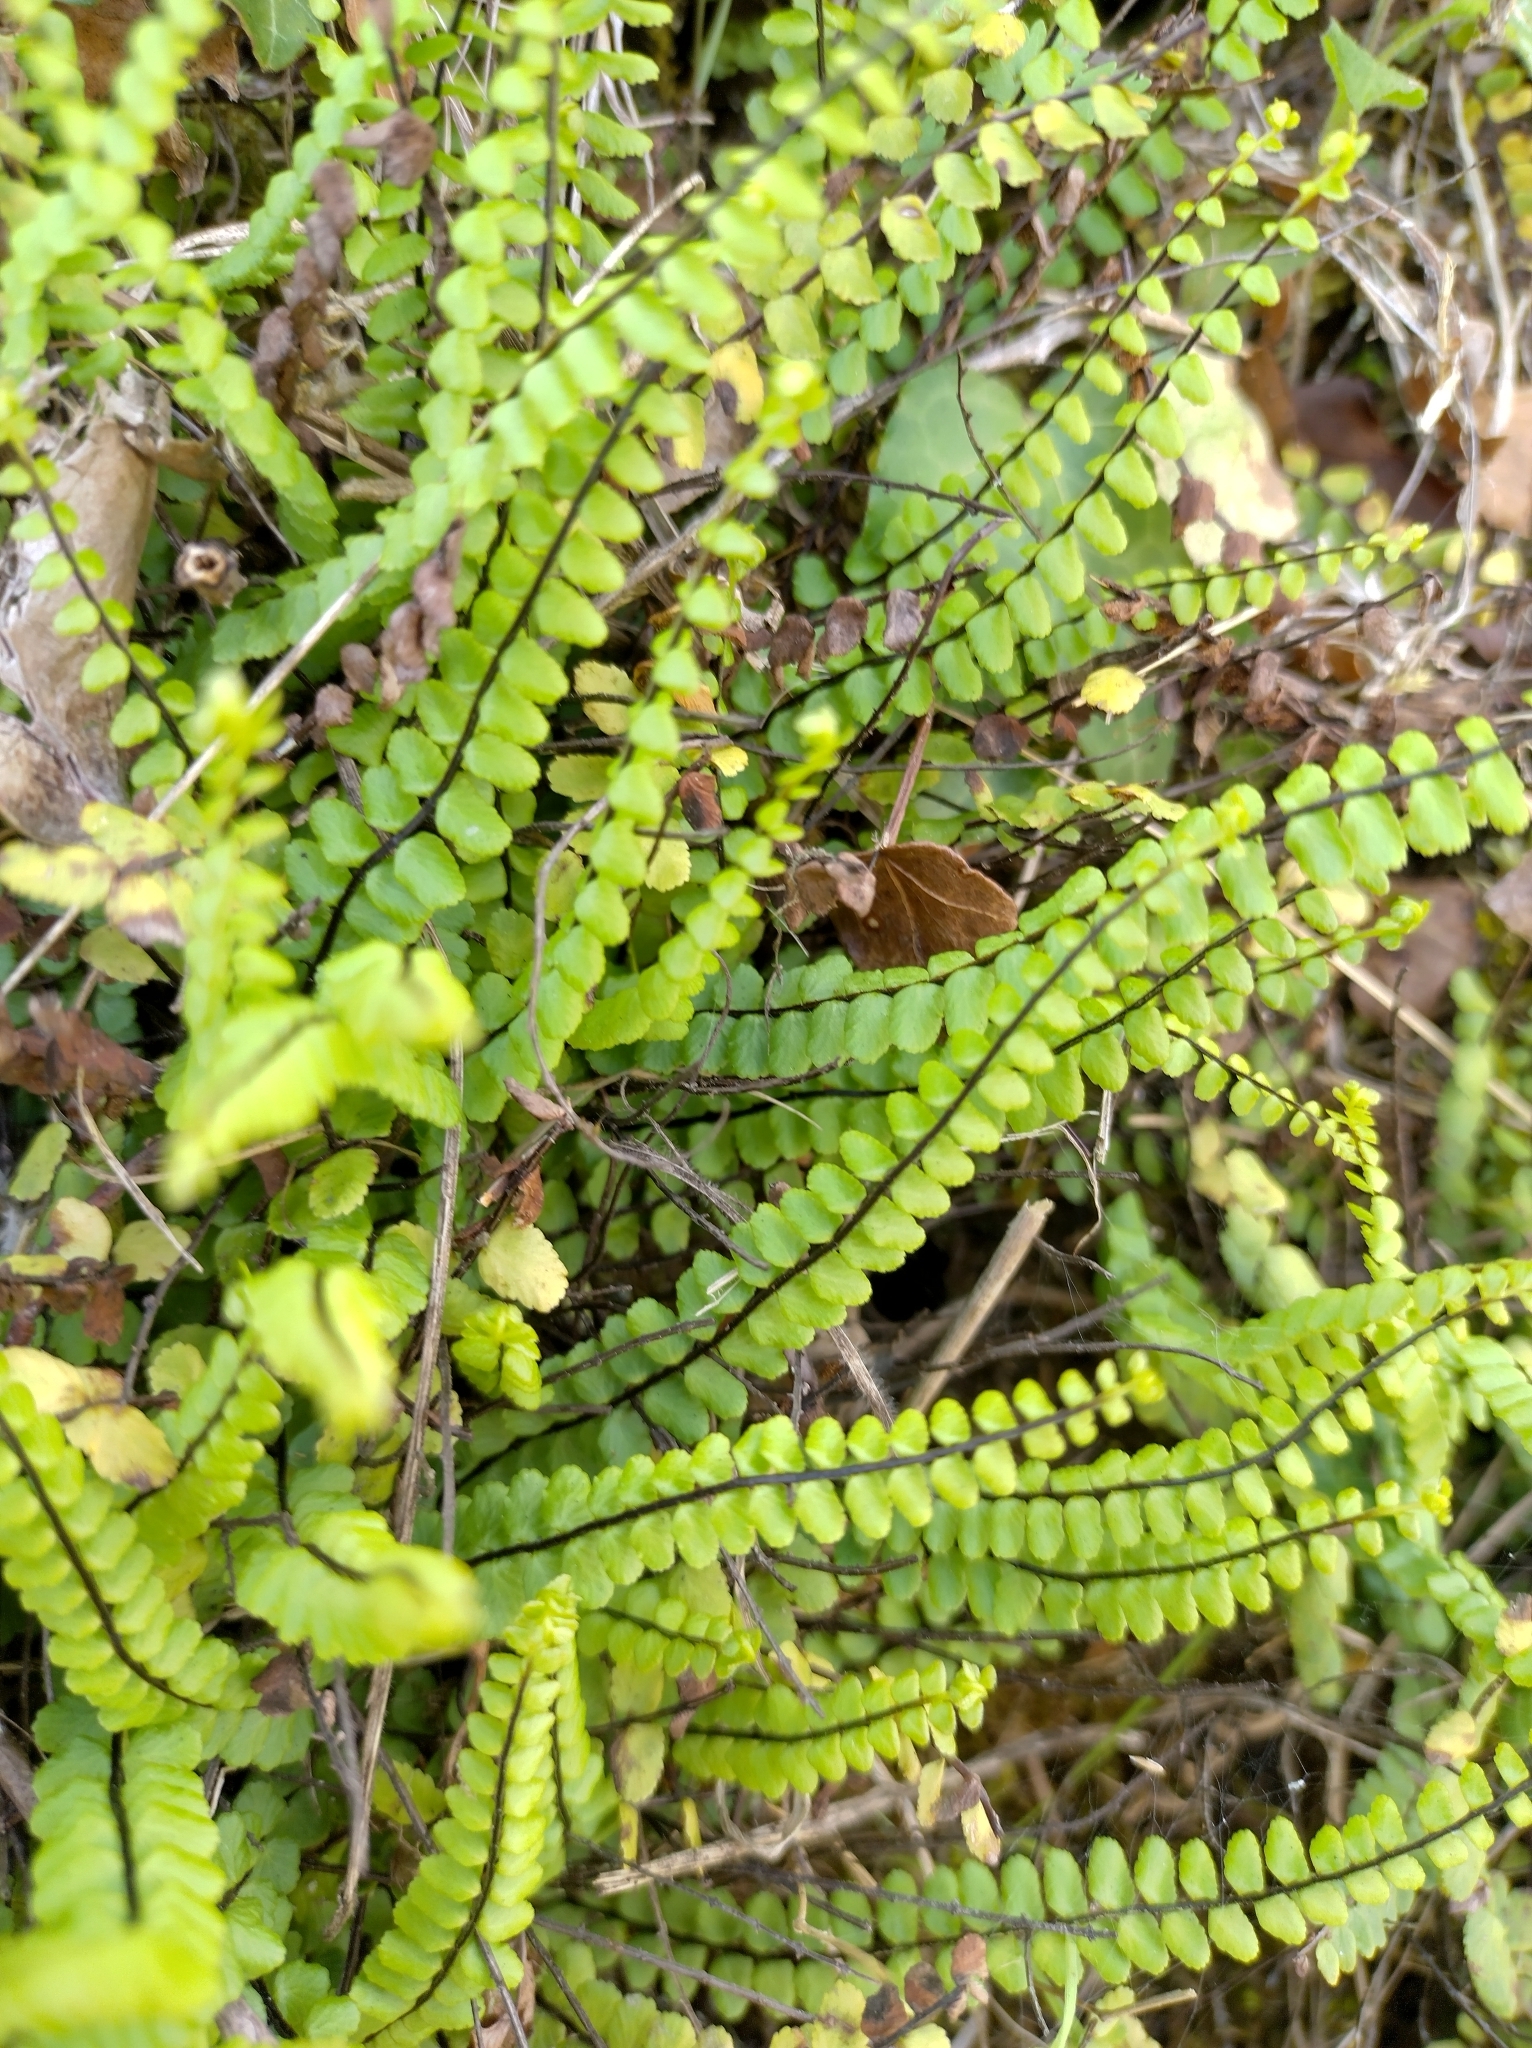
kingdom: Plantae
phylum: Tracheophyta
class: Polypodiopsida
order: Polypodiales
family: Aspleniaceae
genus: Asplenium
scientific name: Asplenium trichomanes
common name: Maidenhair spleenwort
